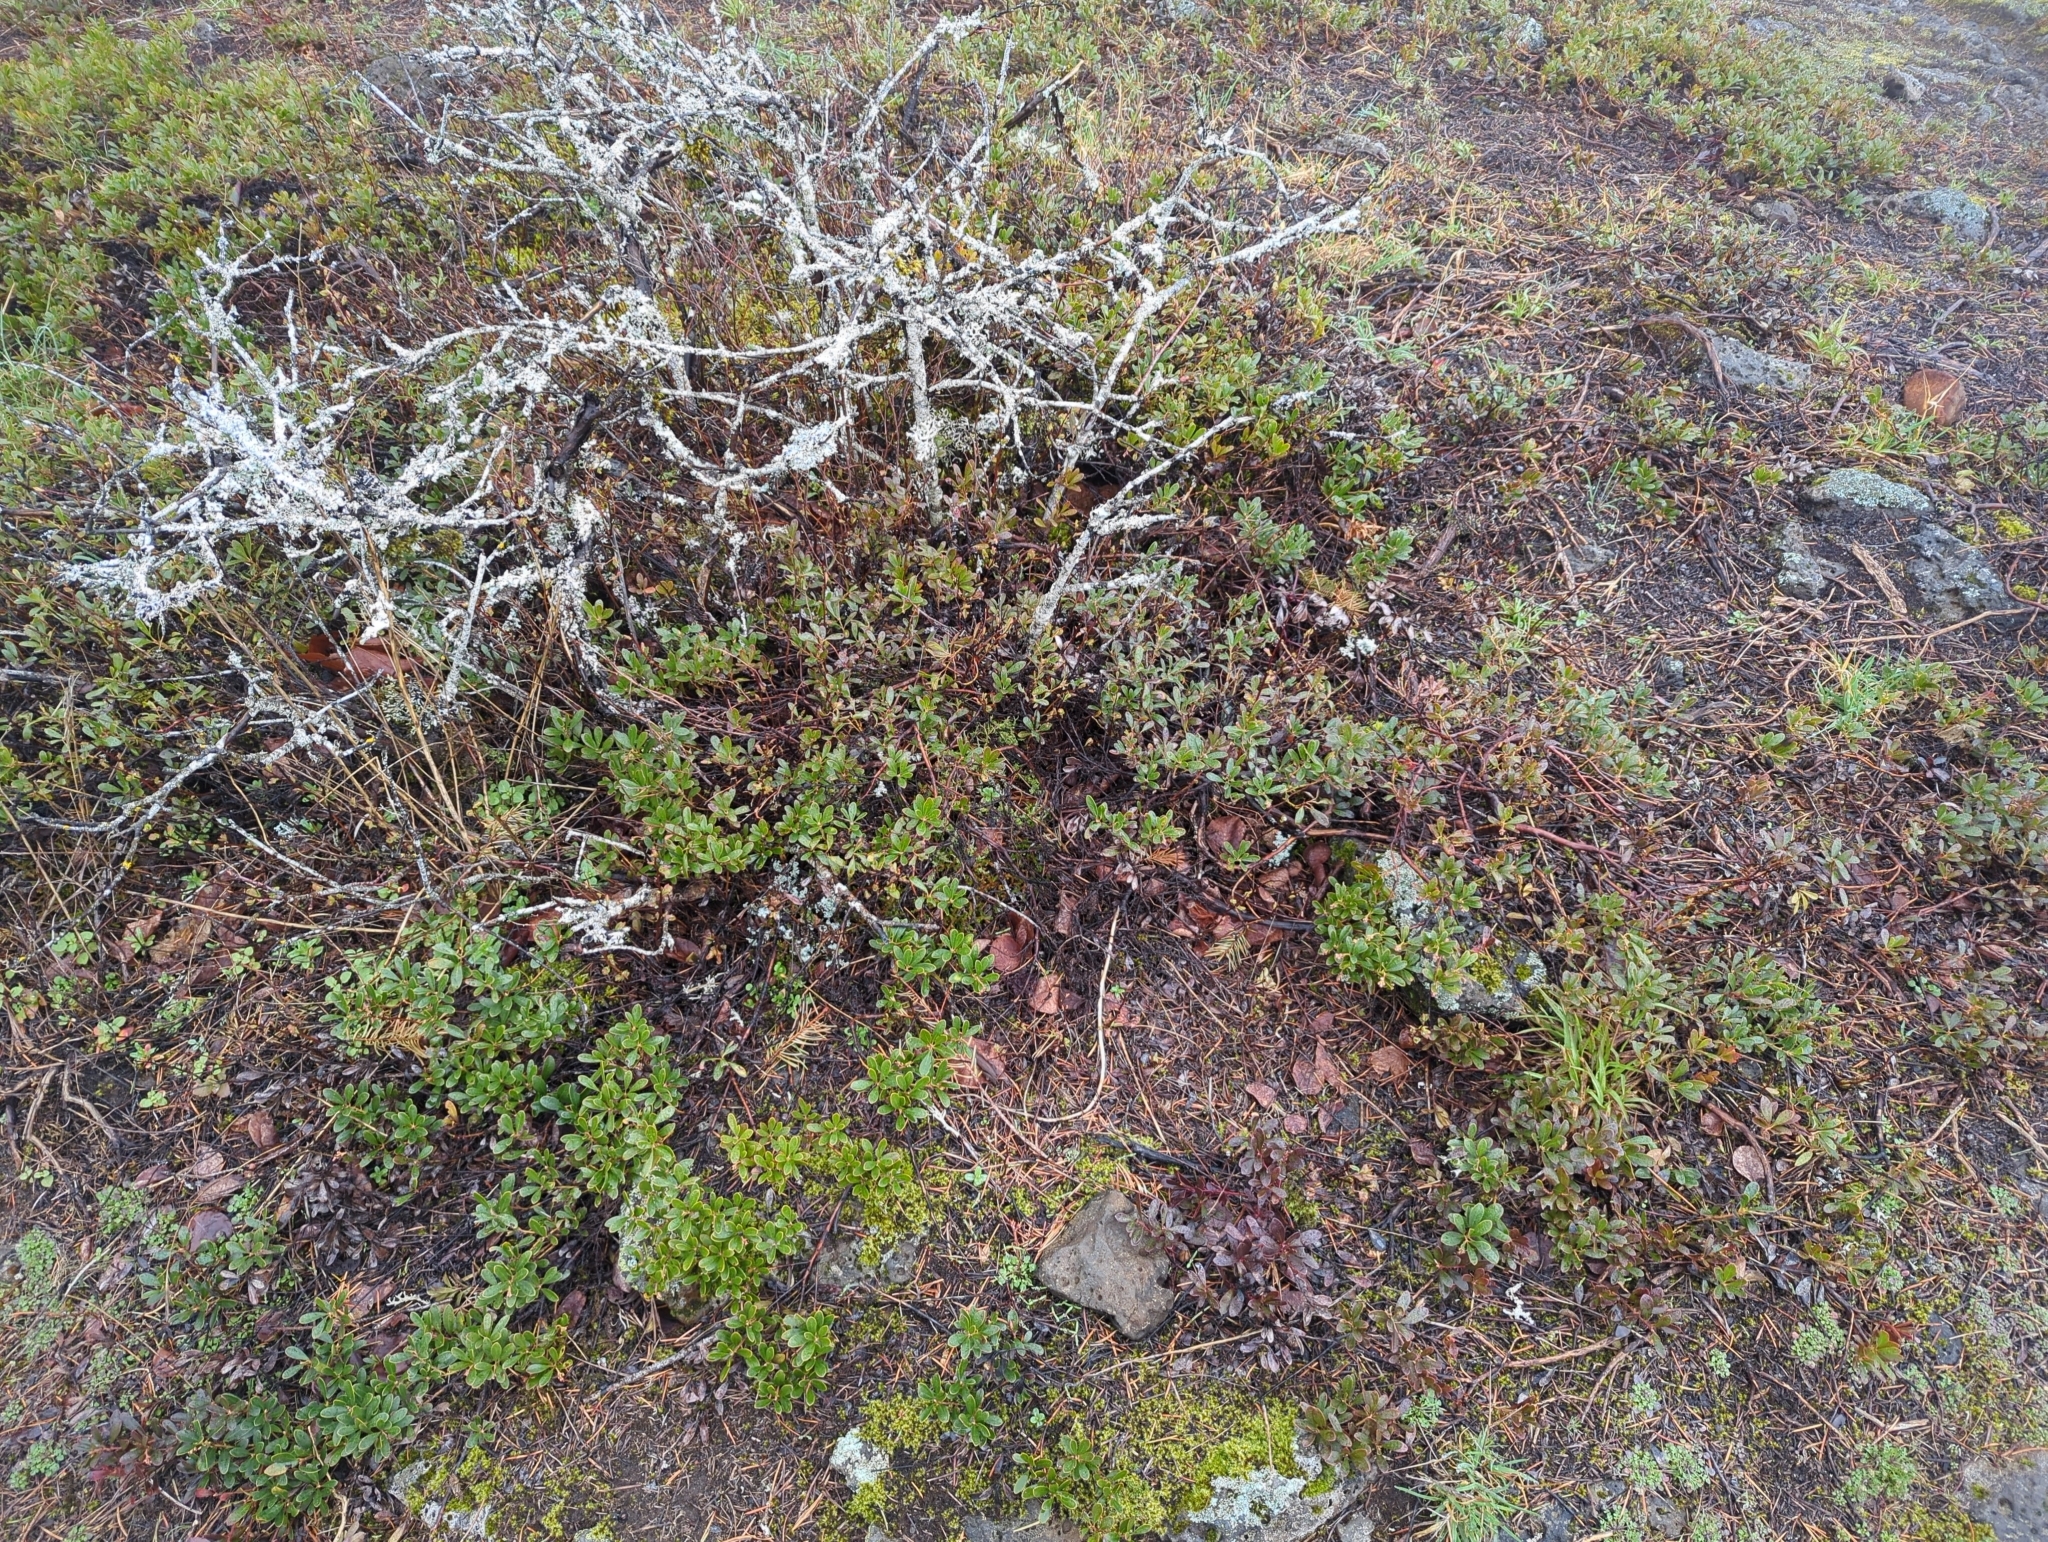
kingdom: Plantae
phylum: Tracheophyta
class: Magnoliopsida
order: Ericales
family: Ericaceae
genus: Arctostaphylos
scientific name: Arctostaphylos uva-ursi
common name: Bearberry
